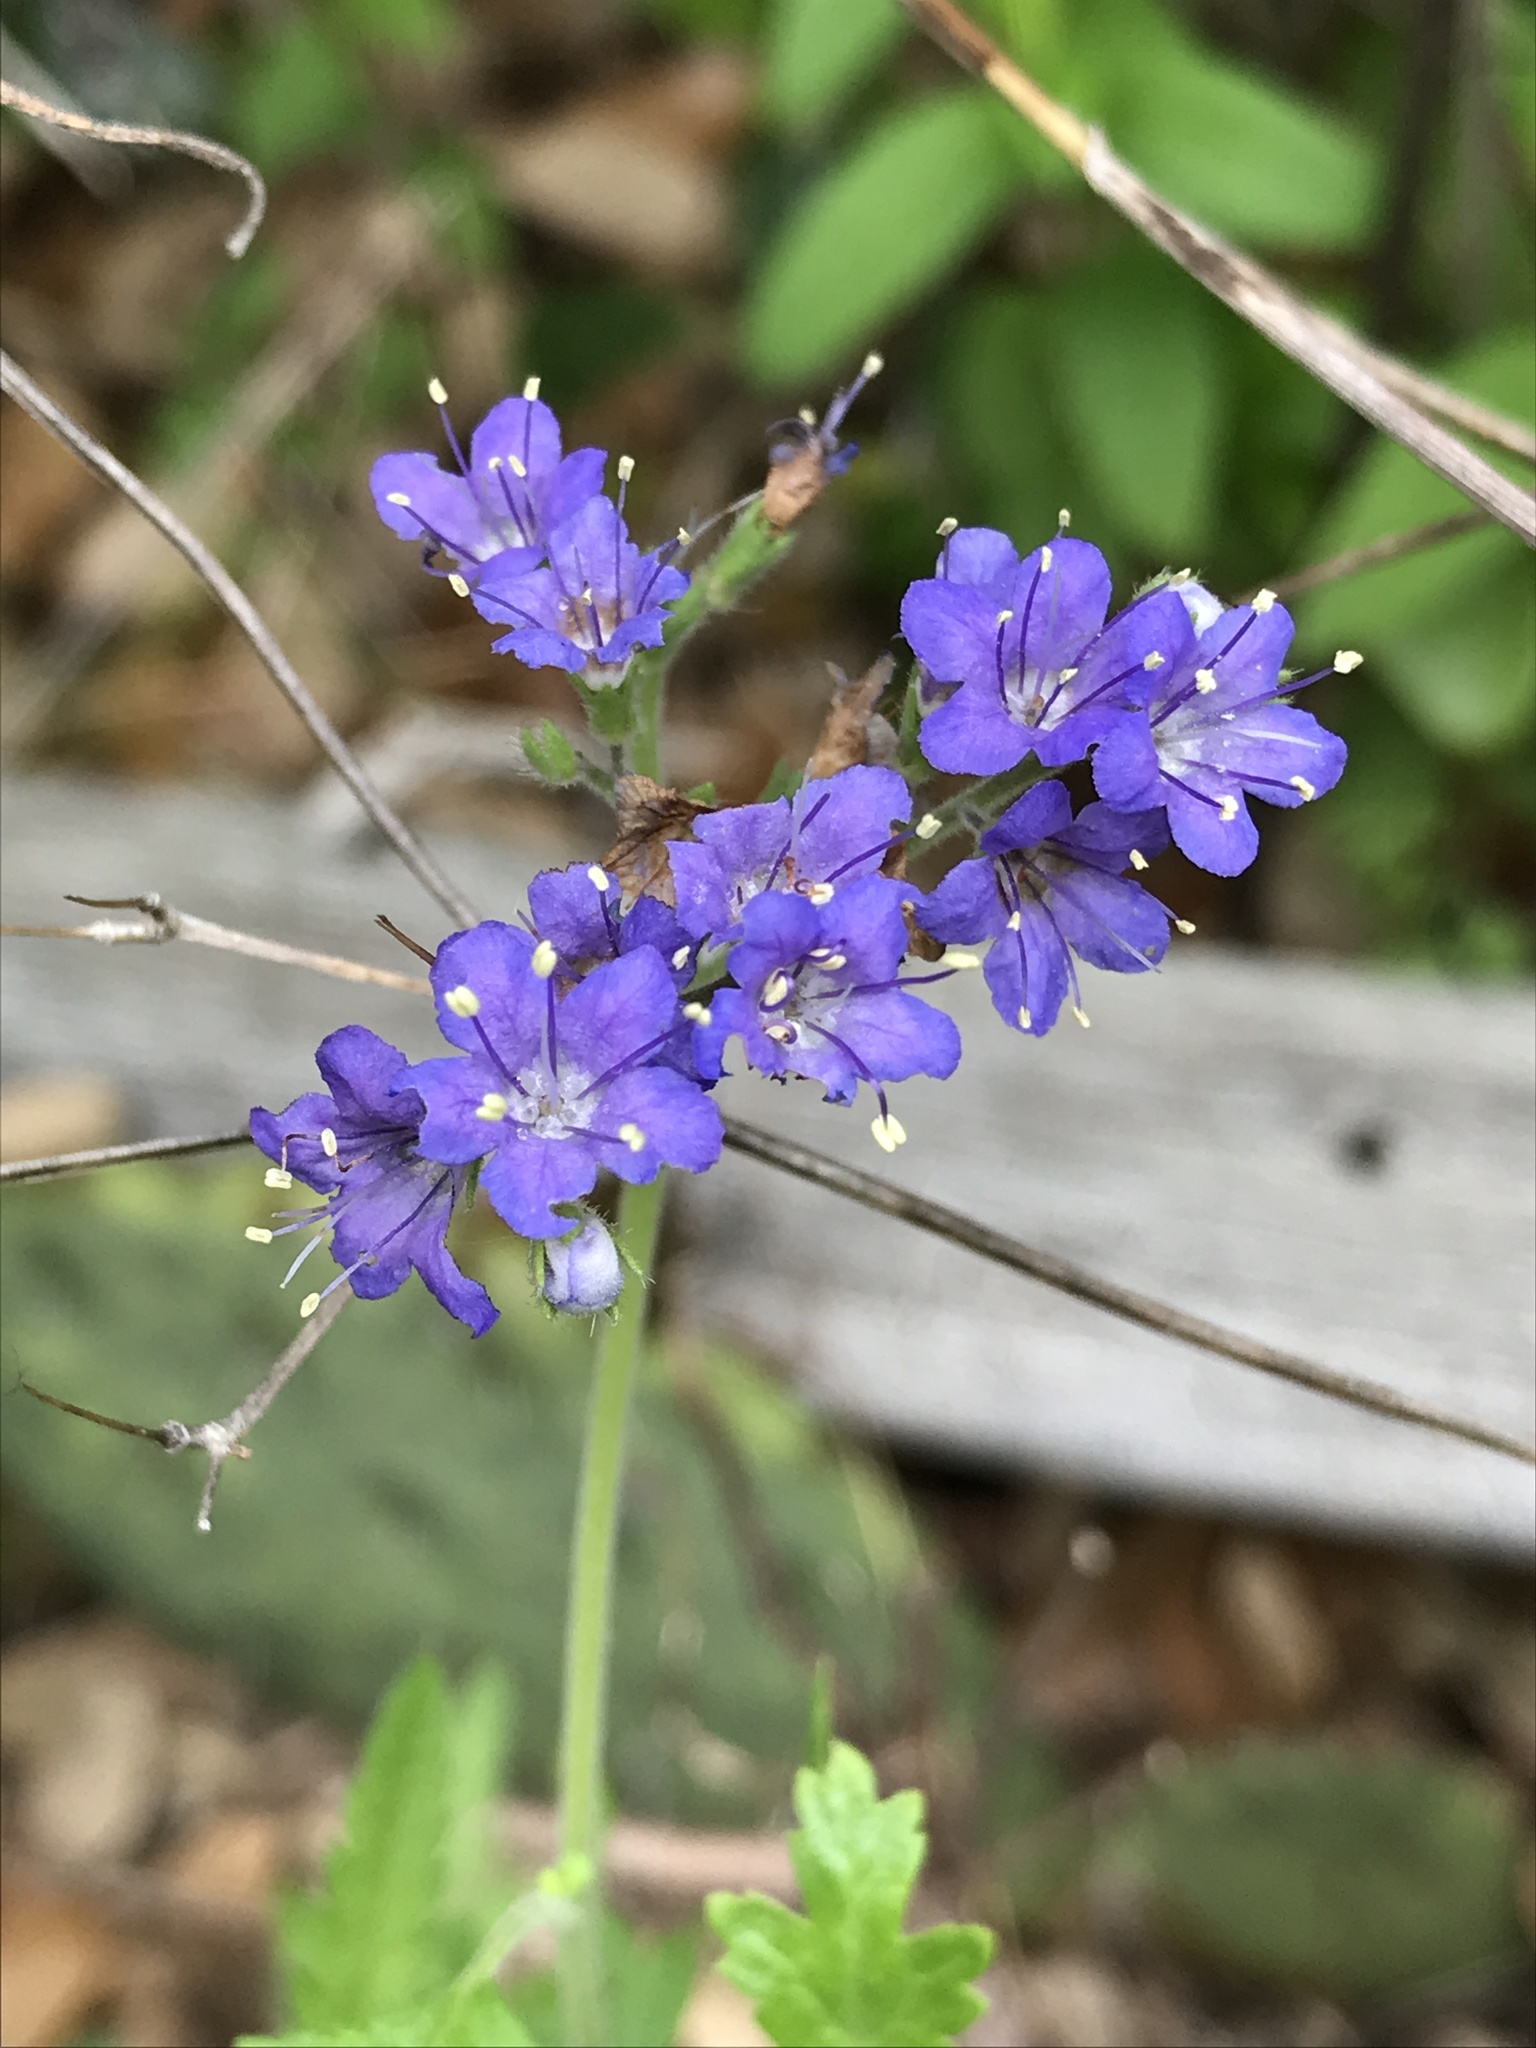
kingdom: Plantae
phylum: Tracheophyta
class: Magnoliopsida
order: Boraginales
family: Hydrophyllaceae
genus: Phacelia
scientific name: Phacelia congesta
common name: Blue curls
